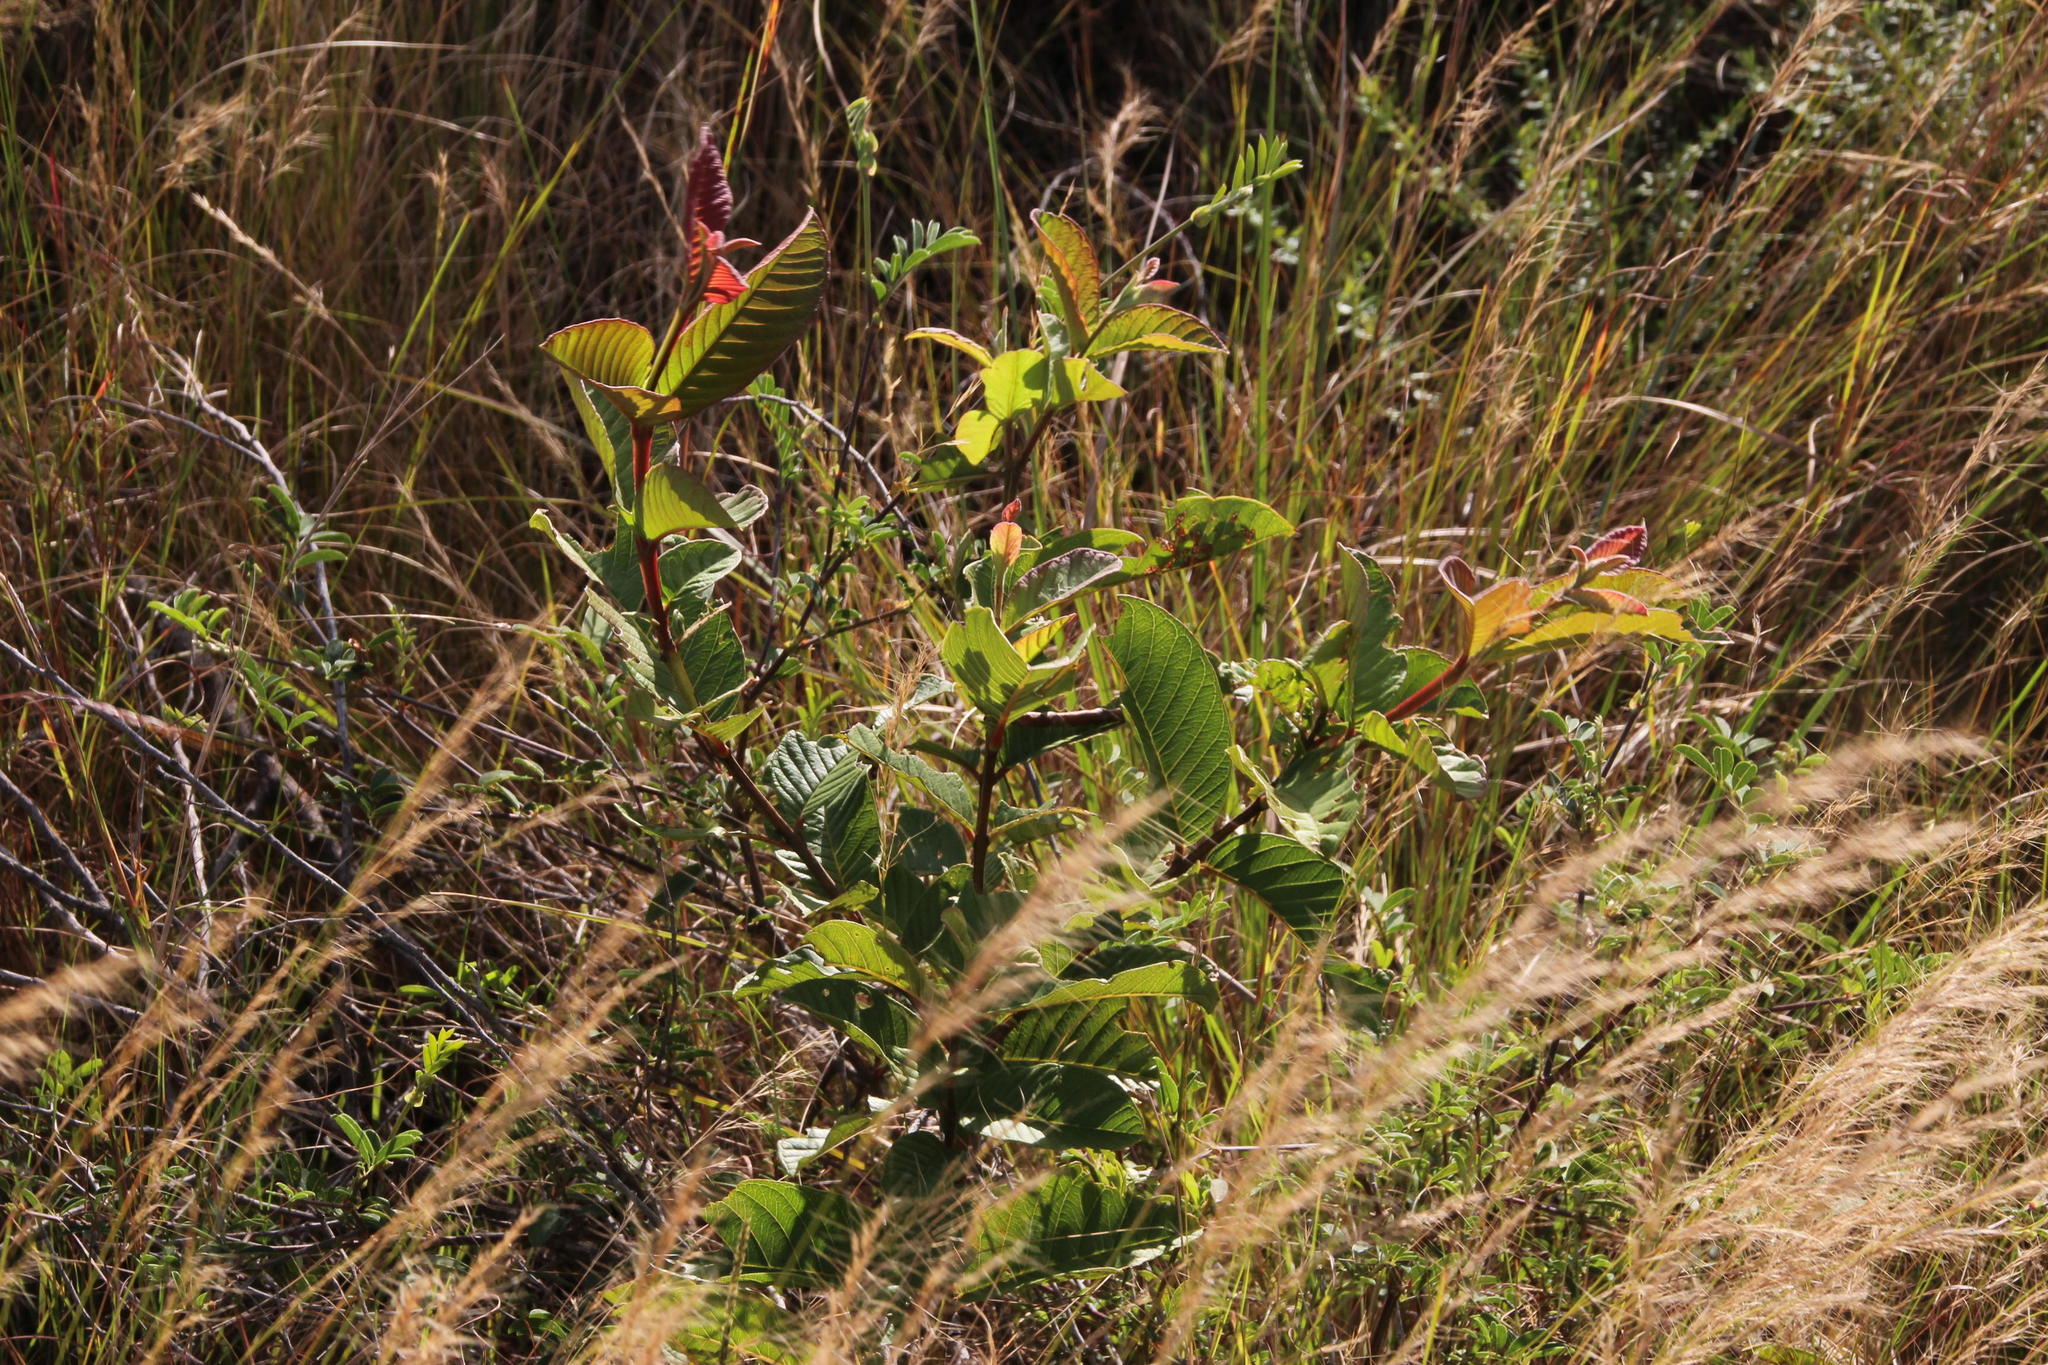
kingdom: Plantae
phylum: Tracheophyta
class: Magnoliopsida
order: Myrtales
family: Myrtaceae
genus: Psidium
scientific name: Psidium guajava
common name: Guava
